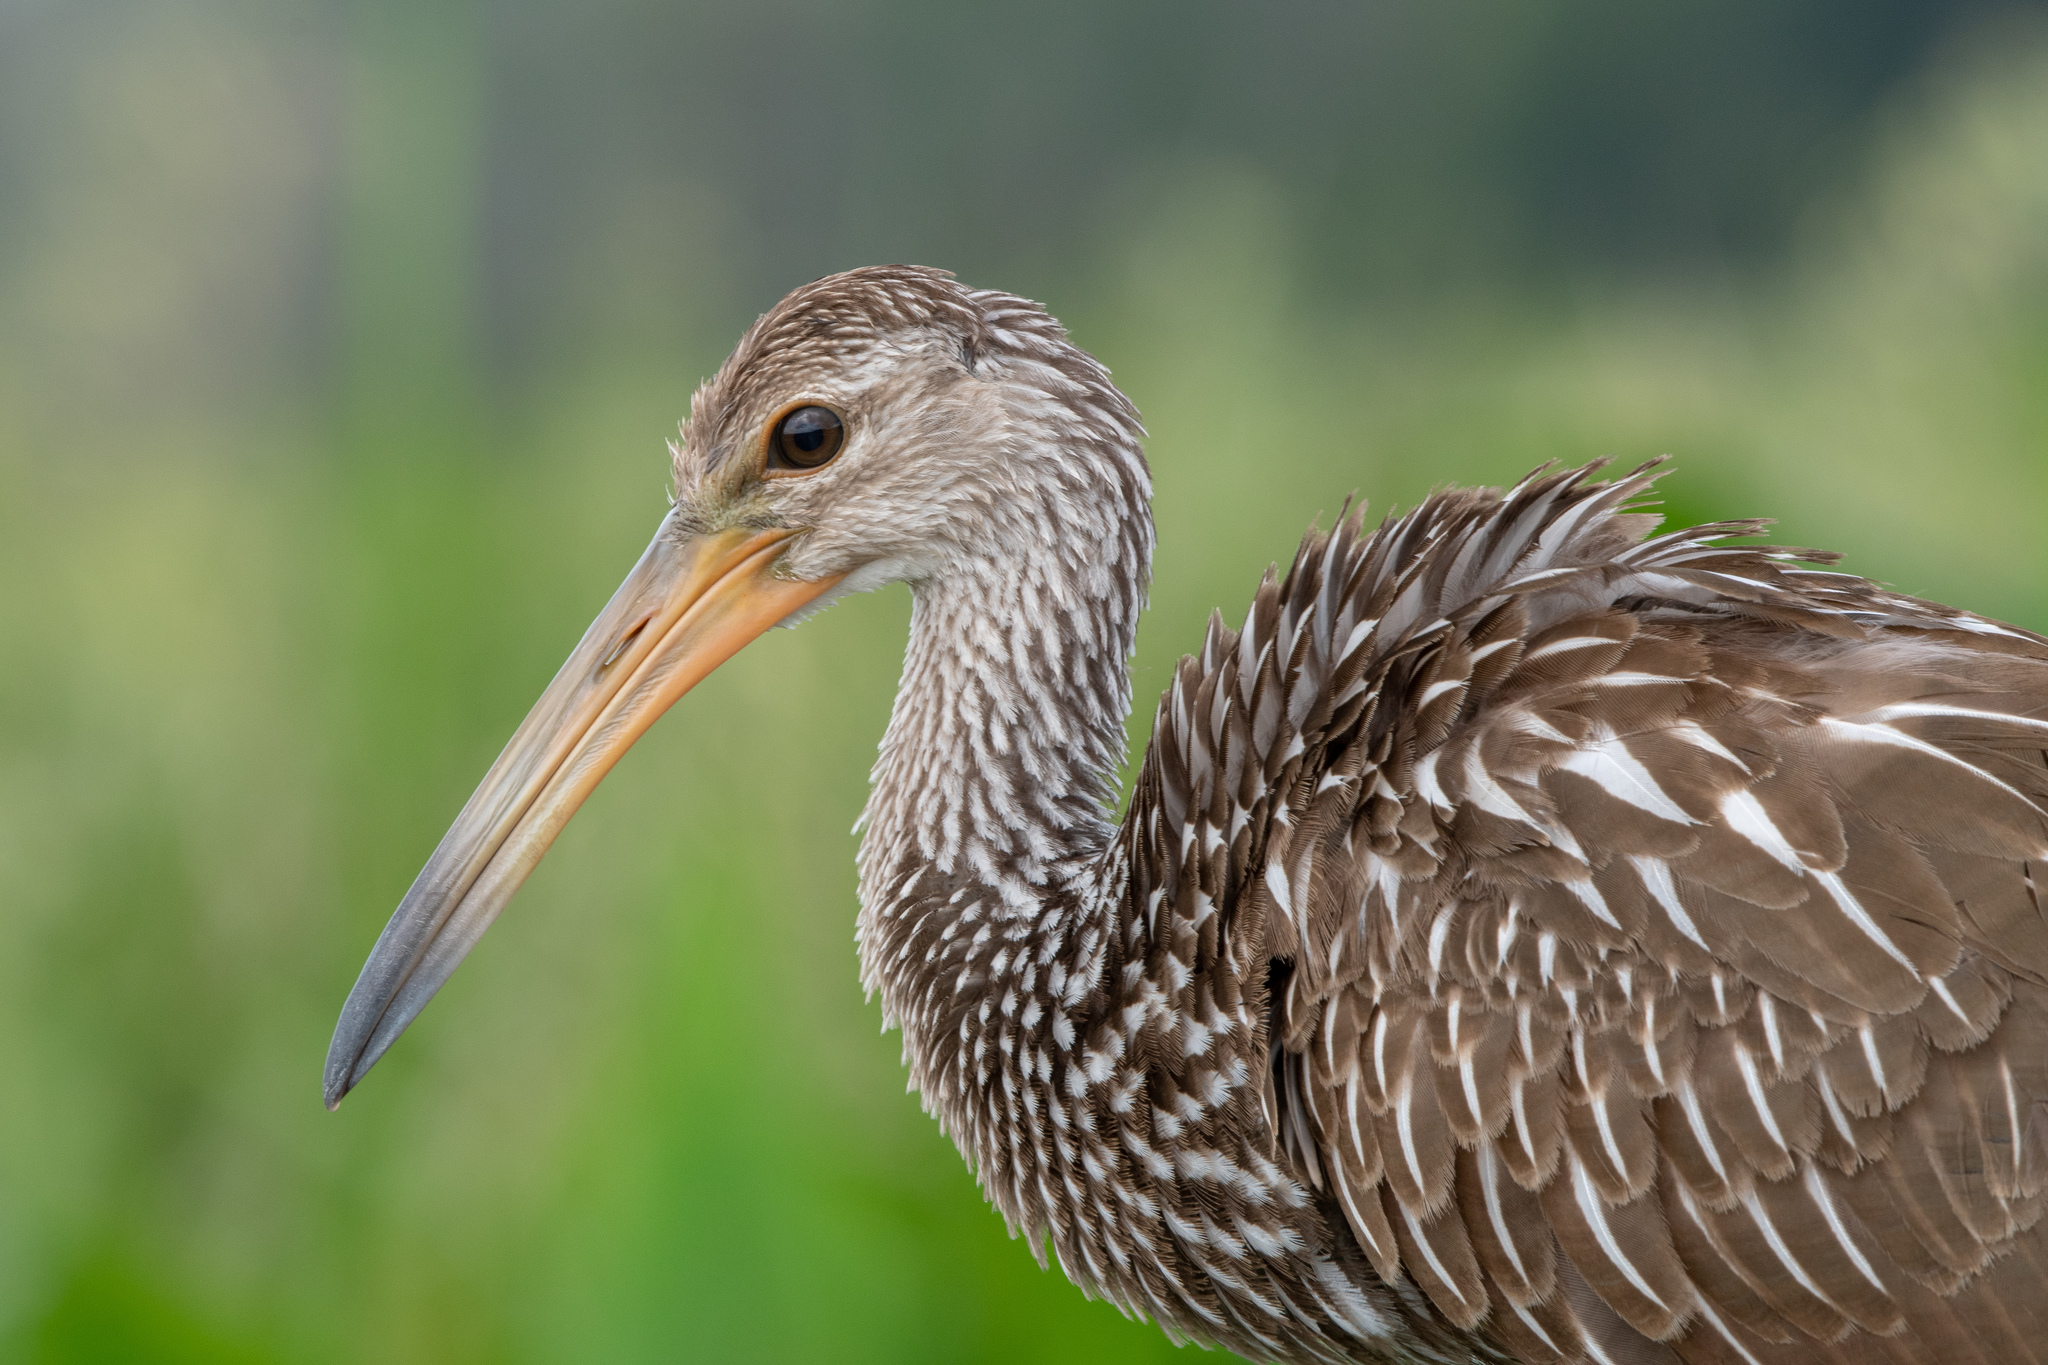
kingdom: Animalia
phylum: Chordata
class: Aves
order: Gruiformes
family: Aramidae
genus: Aramus
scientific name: Aramus guarauna
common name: Limpkin
